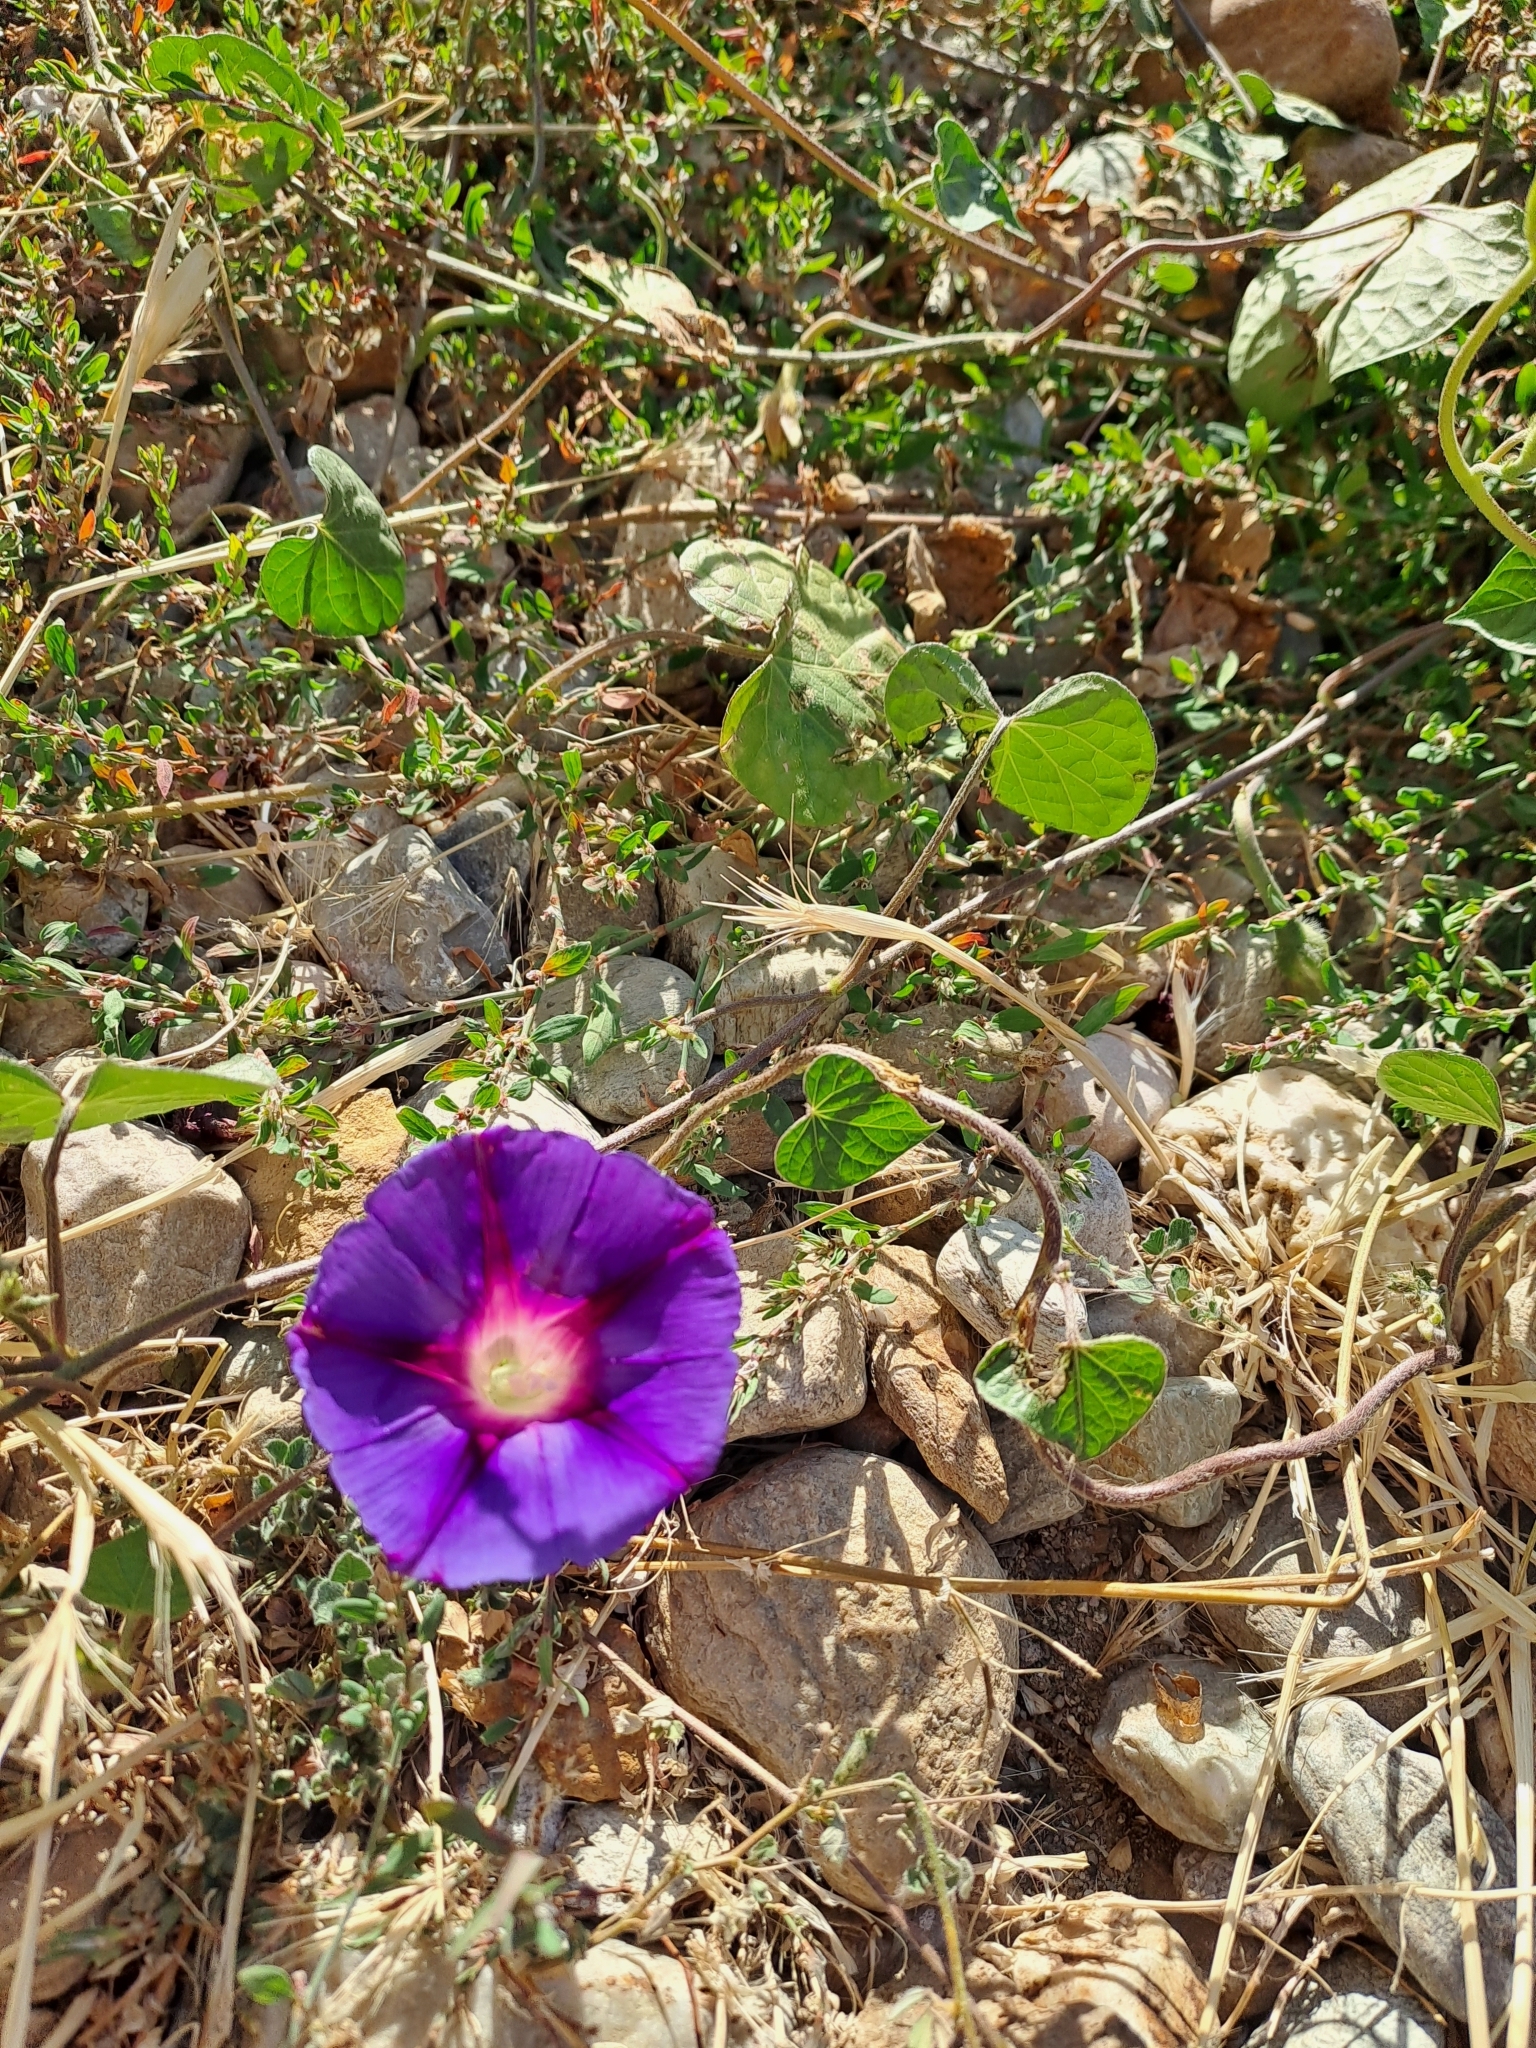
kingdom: Plantae
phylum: Tracheophyta
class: Magnoliopsida
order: Solanales
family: Convolvulaceae
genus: Ipomoea
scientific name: Ipomoea purpurea
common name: Common morning-glory
